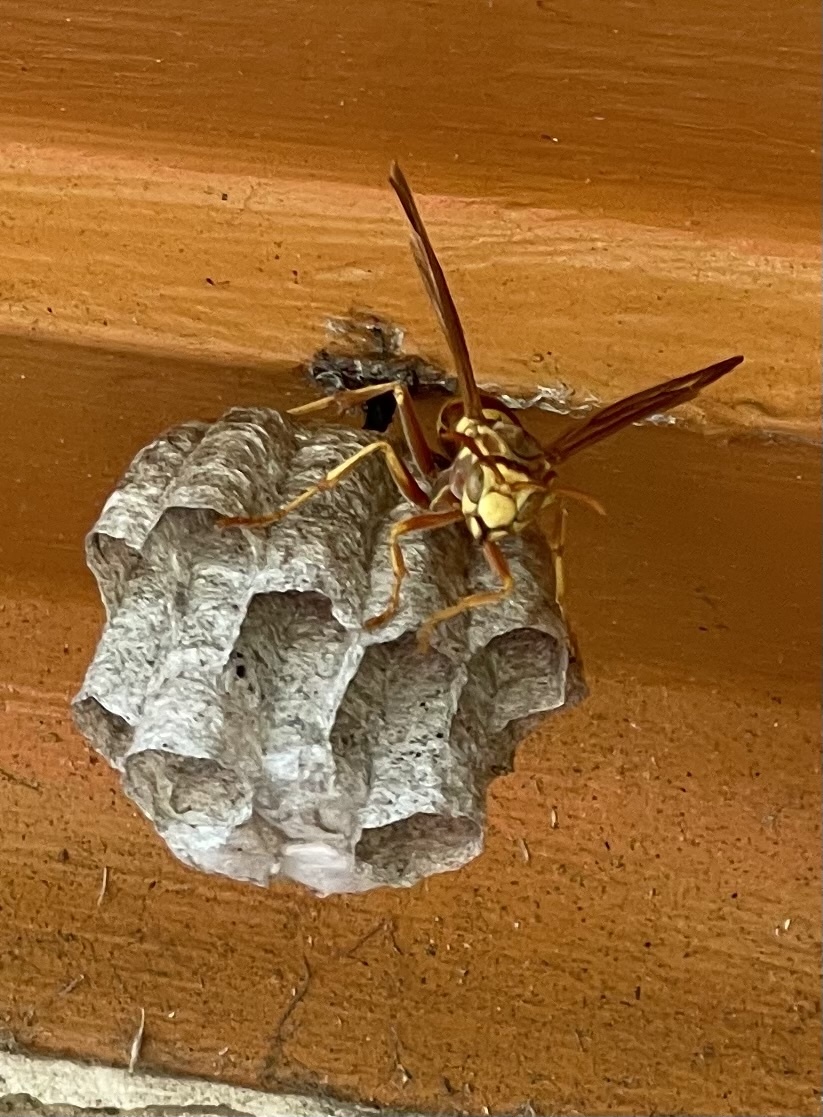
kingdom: Animalia
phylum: Arthropoda
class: Insecta
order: Hymenoptera
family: Eumenidae
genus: Polistes
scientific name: Polistes apachus
